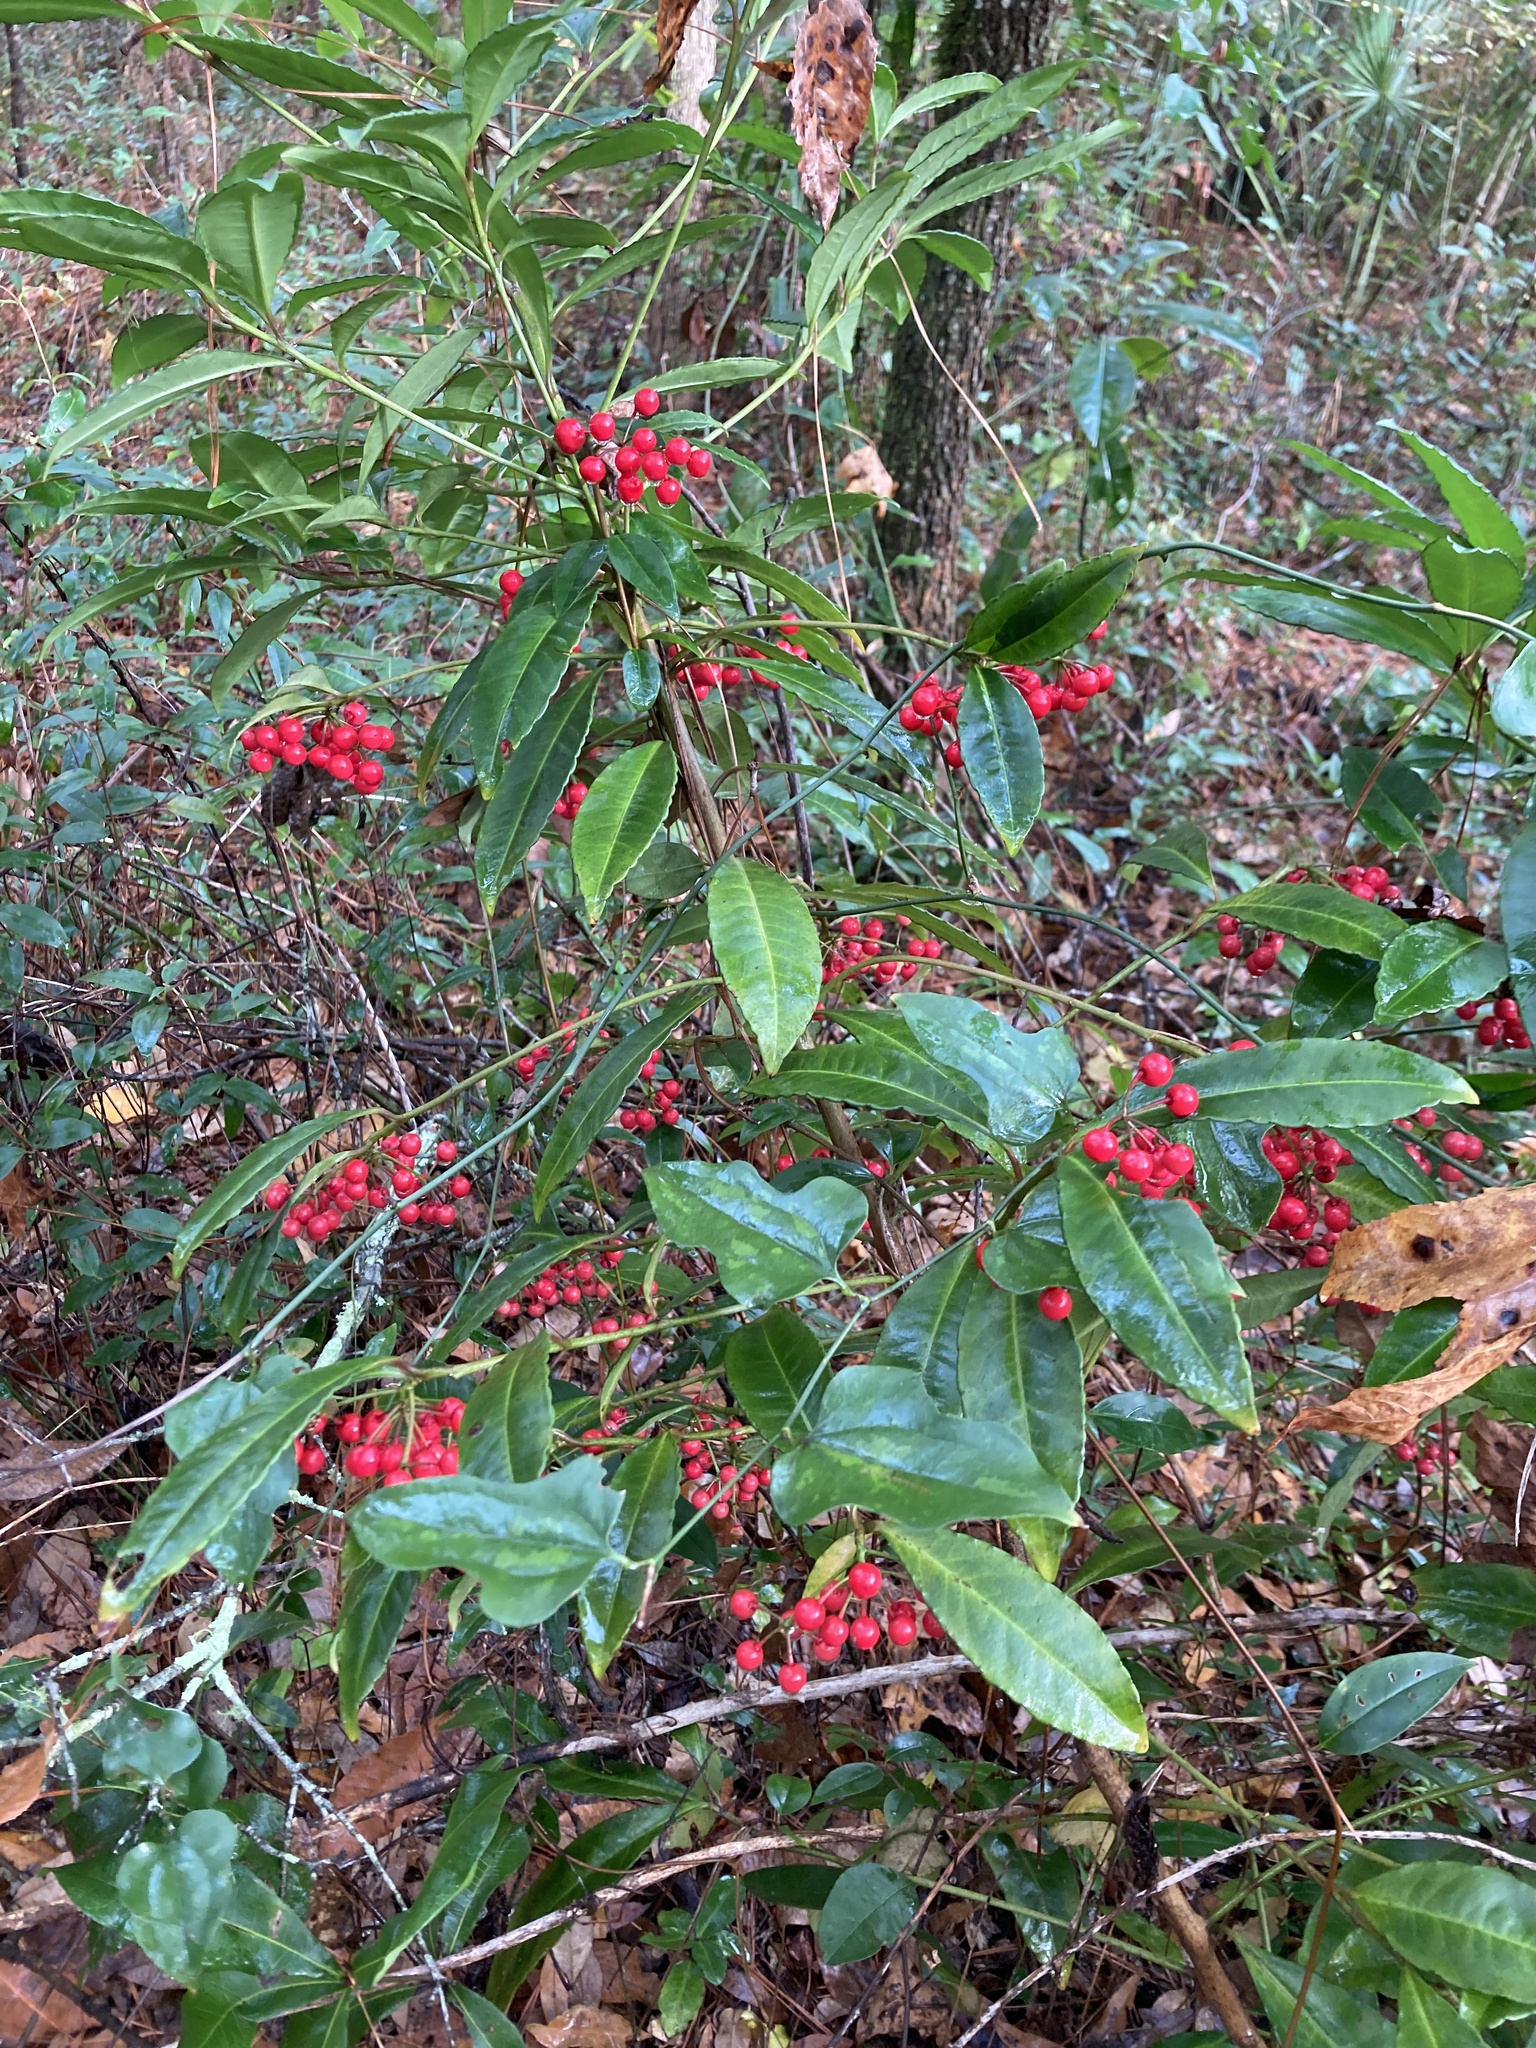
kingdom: Plantae
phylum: Tracheophyta
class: Magnoliopsida
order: Ericales
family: Primulaceae
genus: Ardisia
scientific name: Ardisia crenata
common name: Hen's eyes
